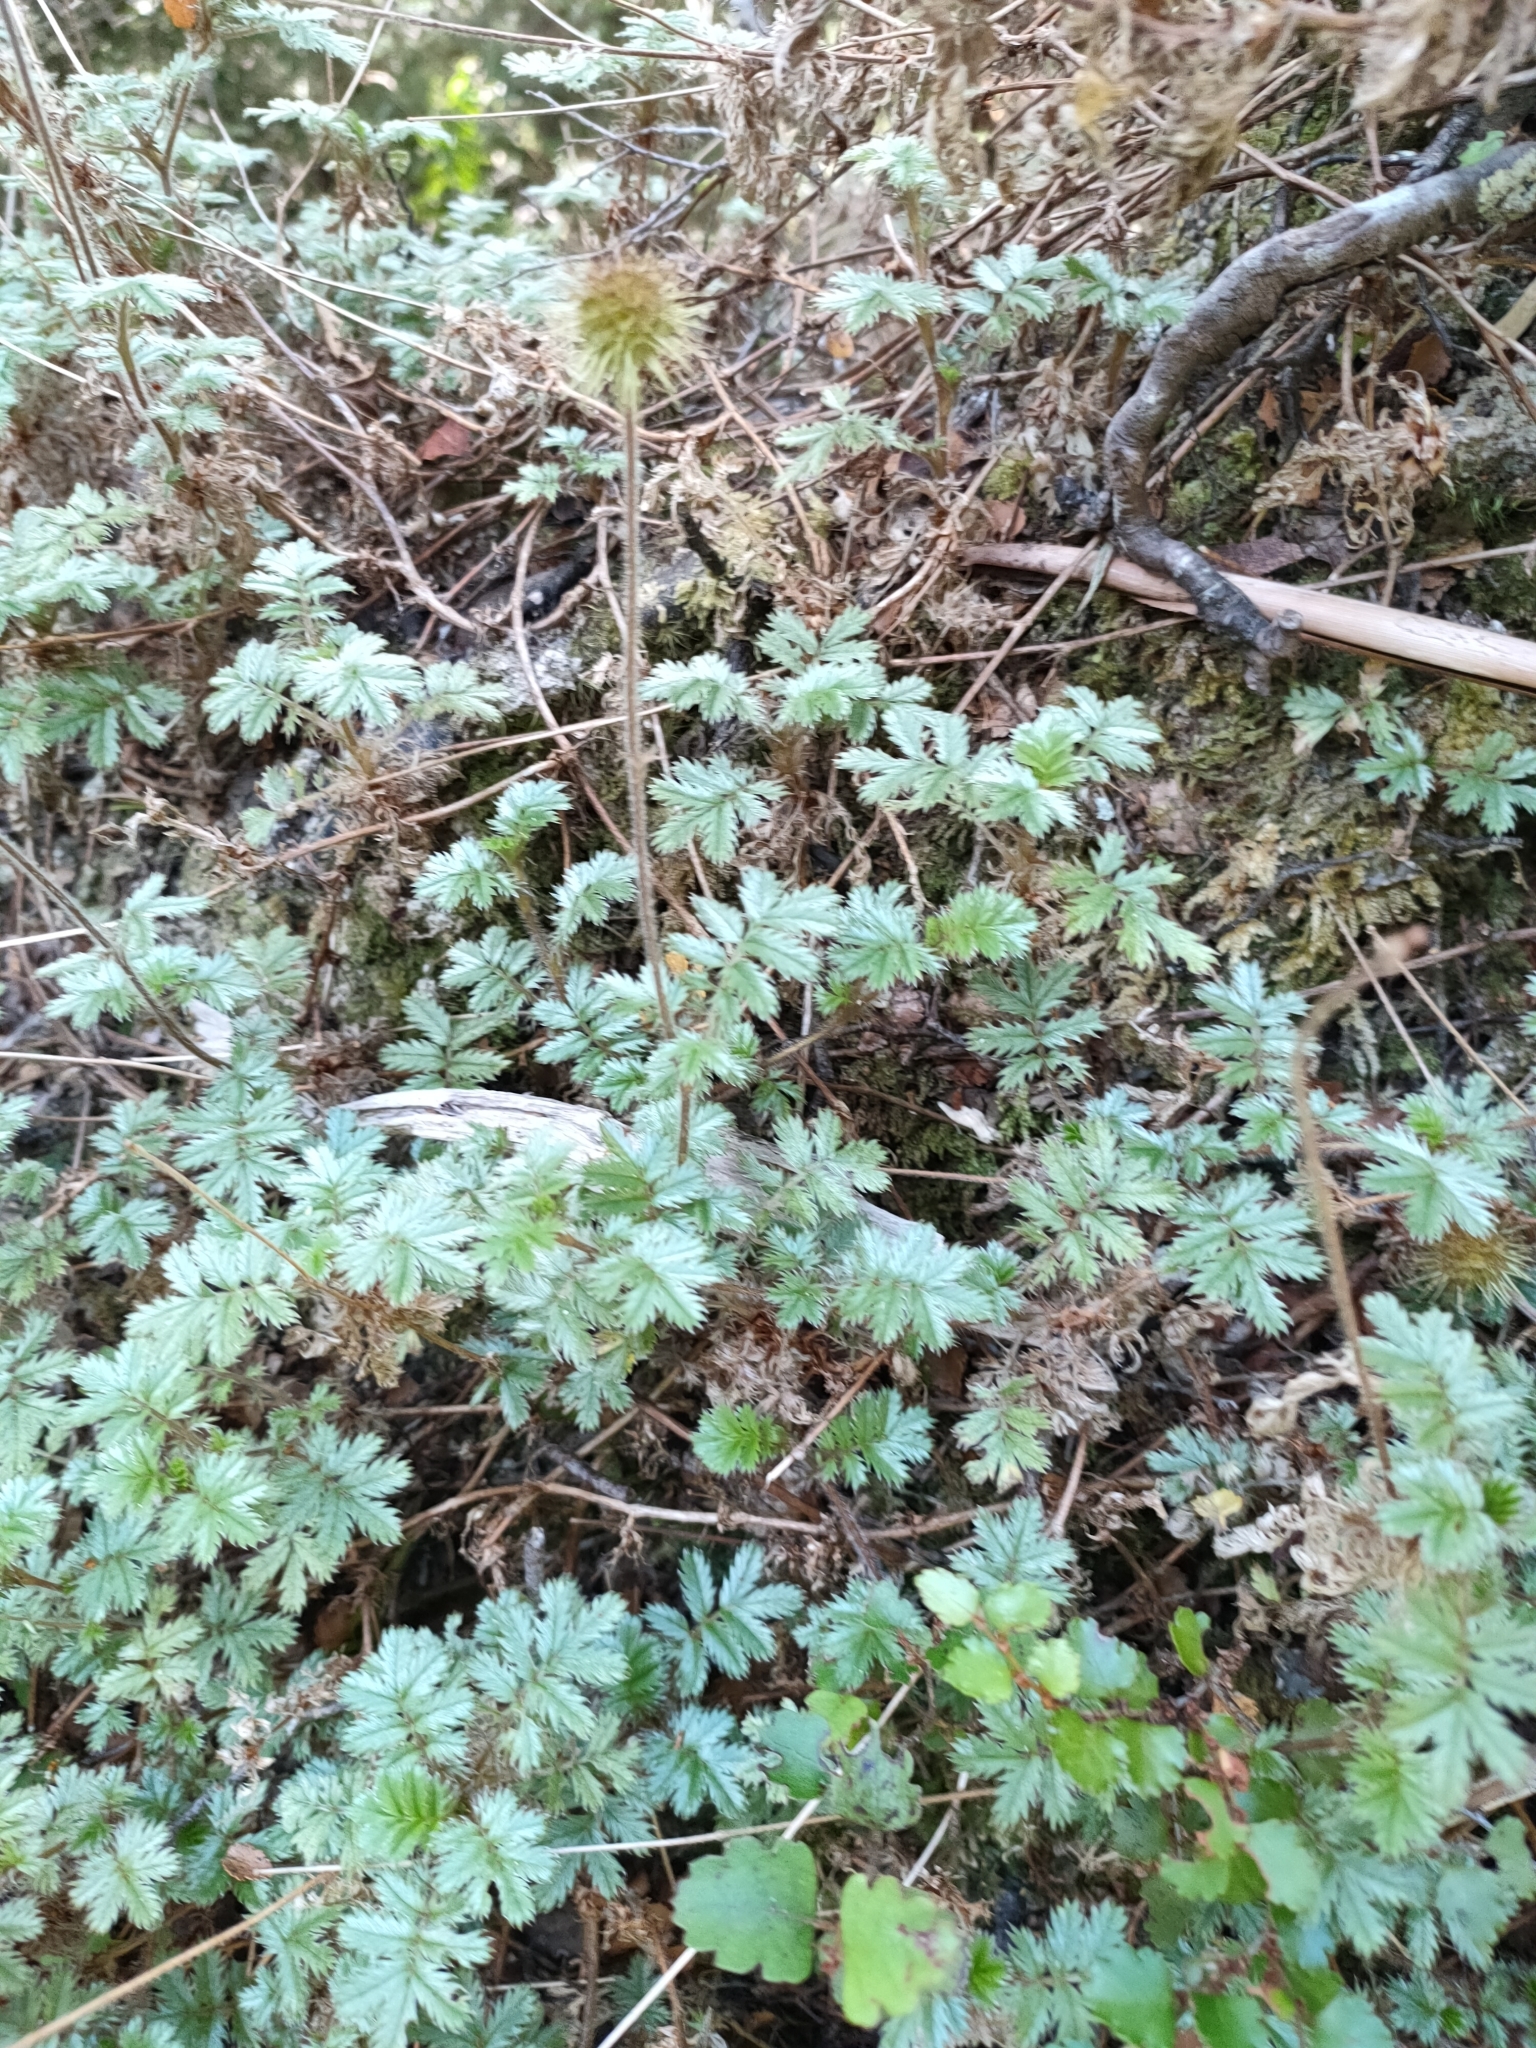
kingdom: Plantae
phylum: Tracheophyta
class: Magnoliopsida
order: Rosales
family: Rosaceae
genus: Acaena
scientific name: Acaena anserinifolia
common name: Bronze pirri-pirri-bur
